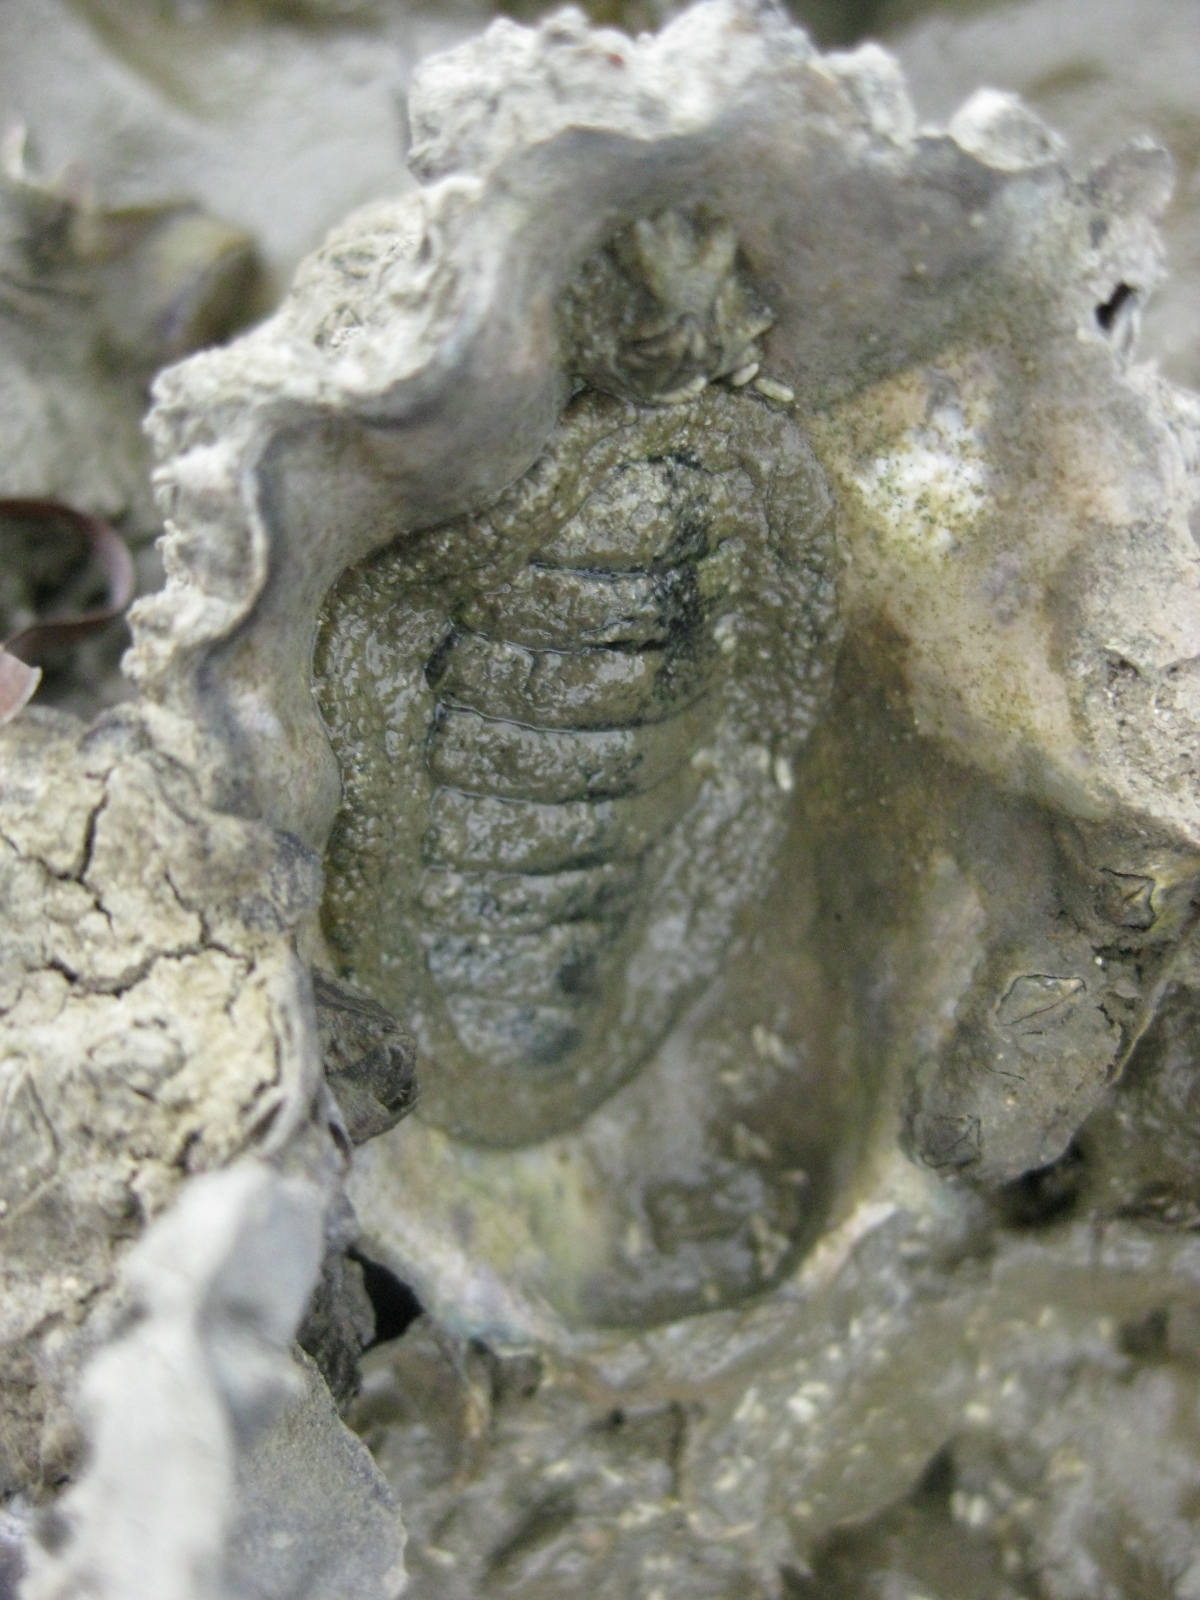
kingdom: Animalia
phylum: Mollusca
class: Polyplacophora
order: Chitonida
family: Chitonidae
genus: Sypharochiton
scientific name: Sypharochiton pelliserpentis
